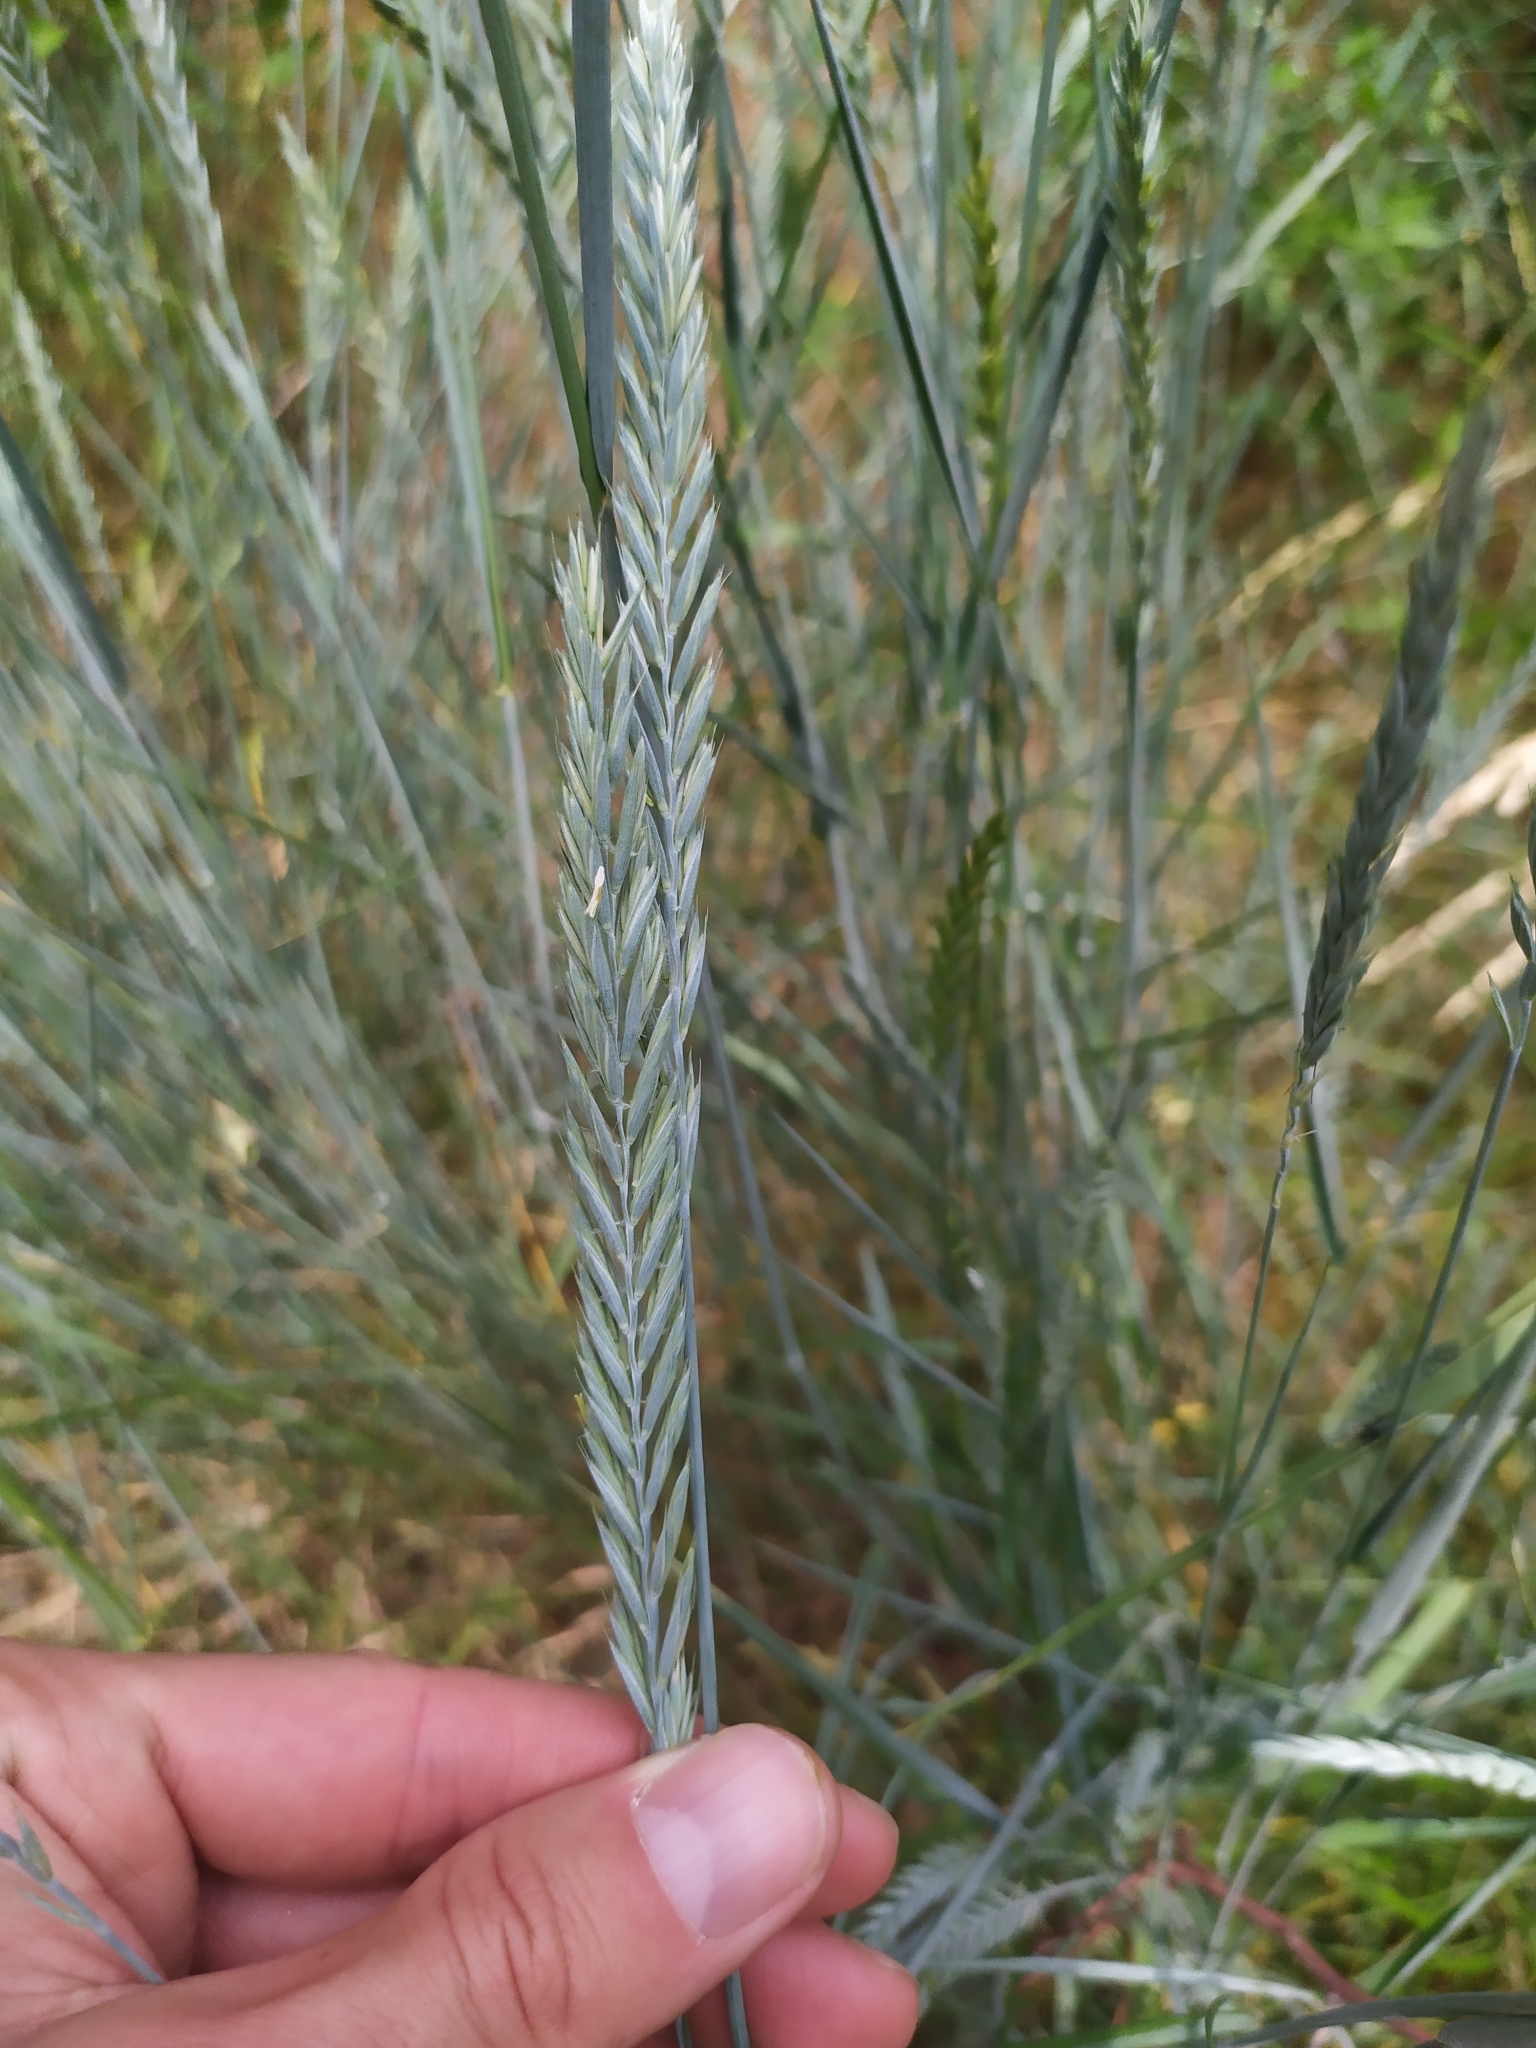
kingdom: Plantae
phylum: Tracheophyta
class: Liliopsida
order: Poales
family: Poaceae
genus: Elymus
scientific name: Elymus repens
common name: Quackgrass
